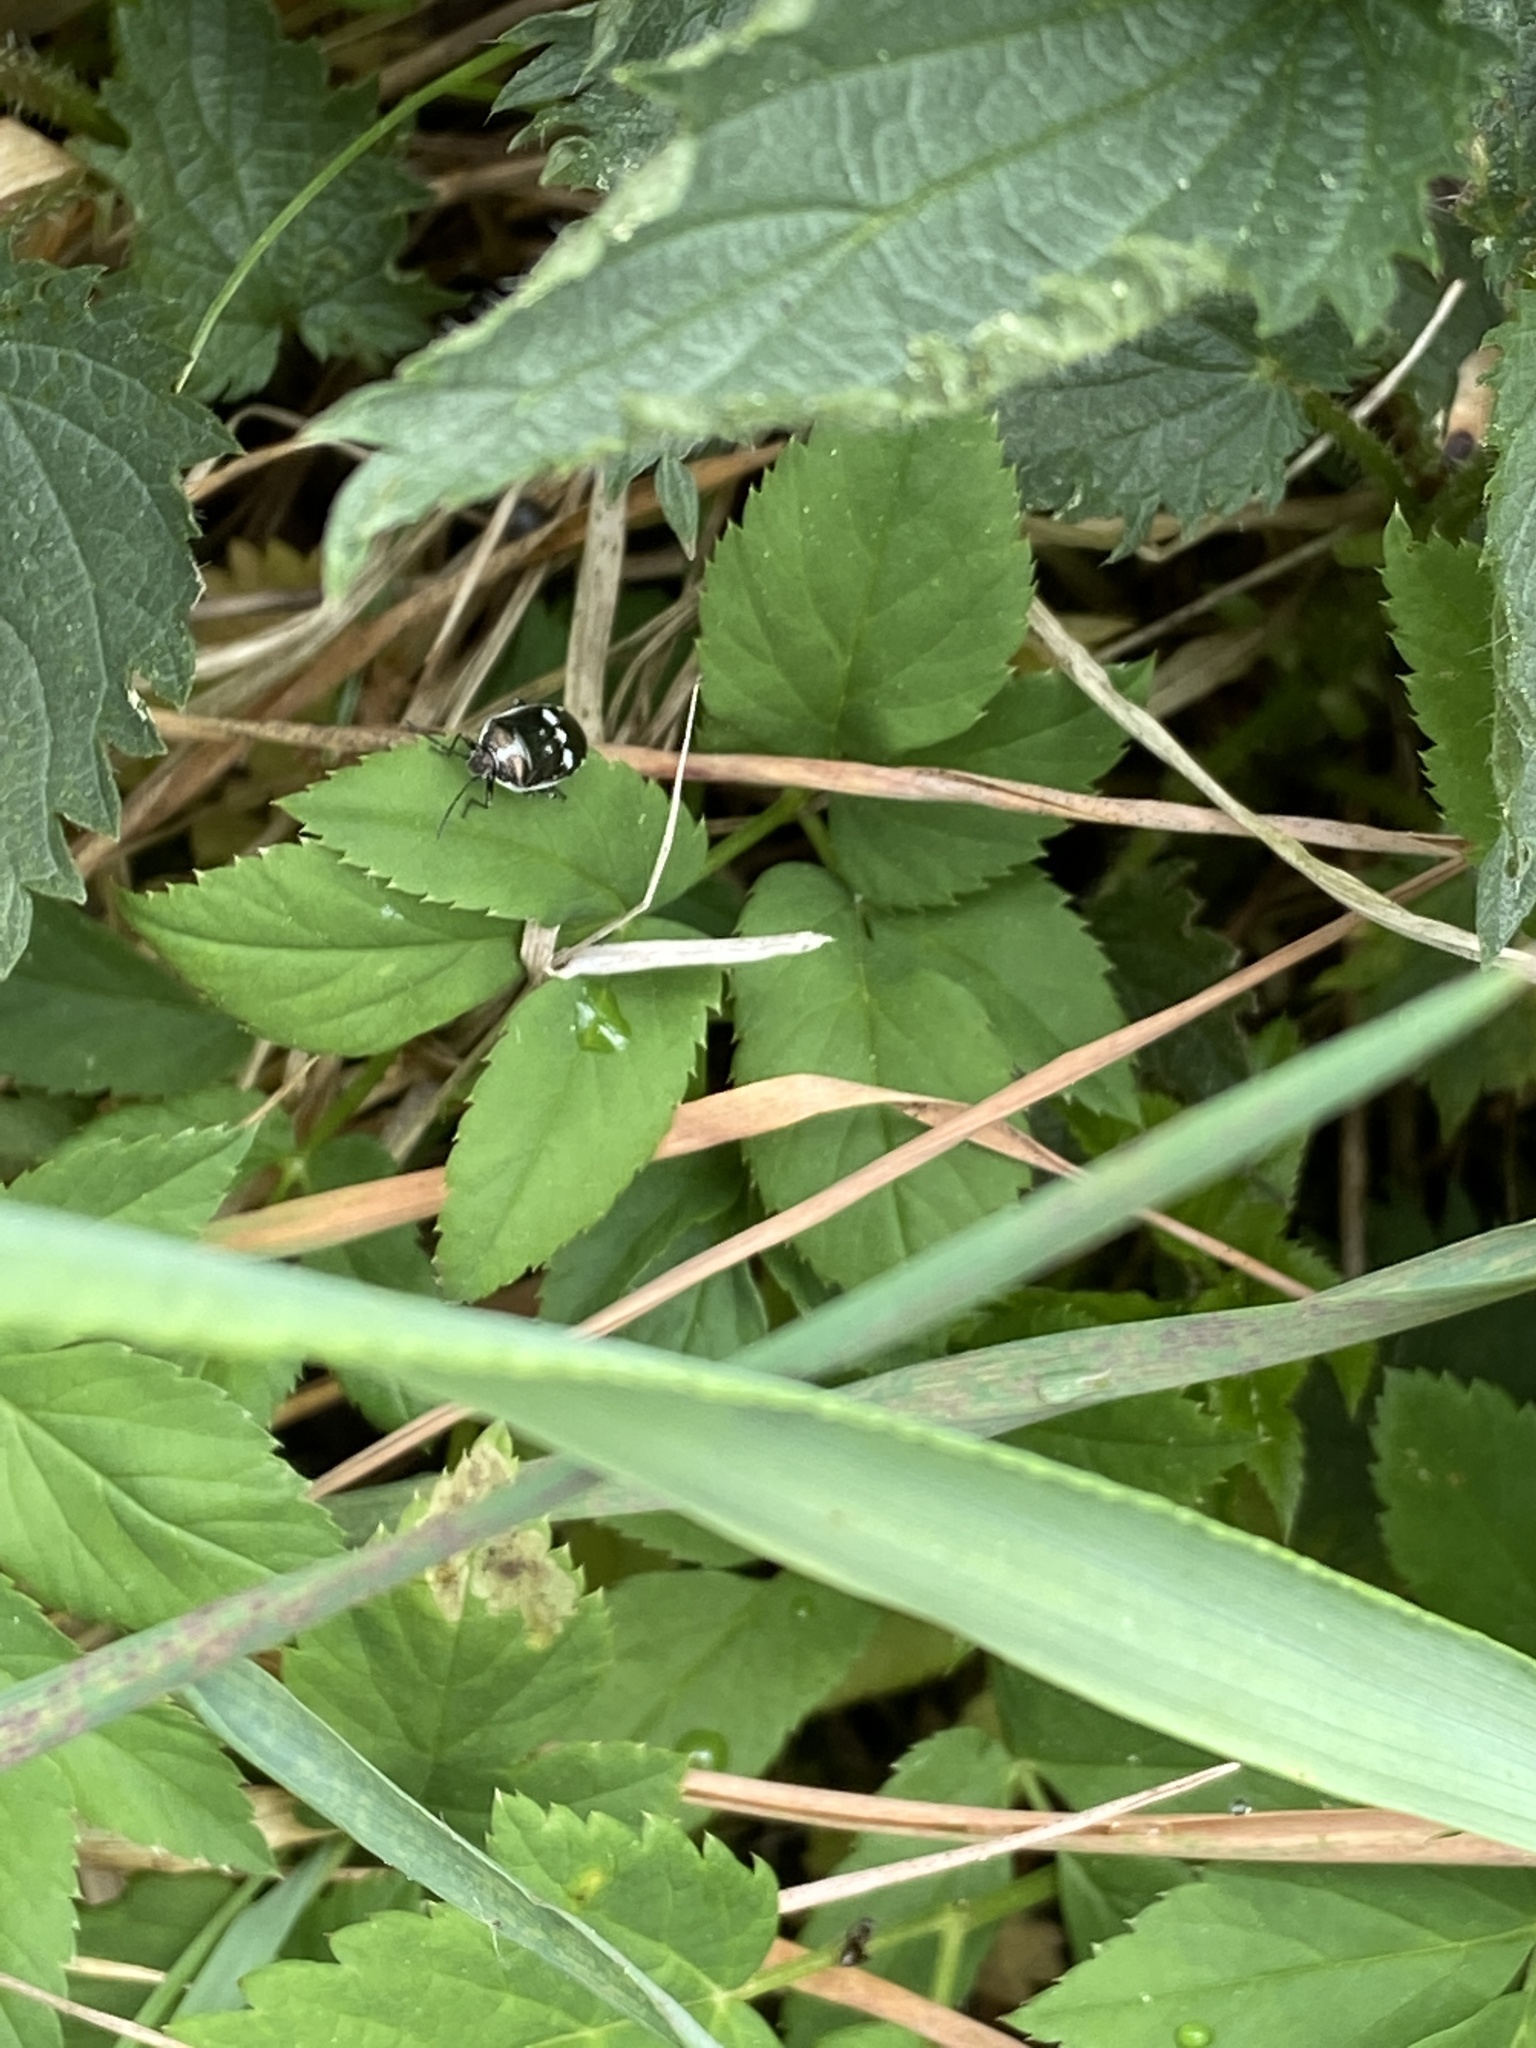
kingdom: Animalia
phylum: Arthropoda
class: Insecta
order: Hemiptera
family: Pentatomidae
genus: Eurydema
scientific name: Eurydema oleracea
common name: Cabbage bug
